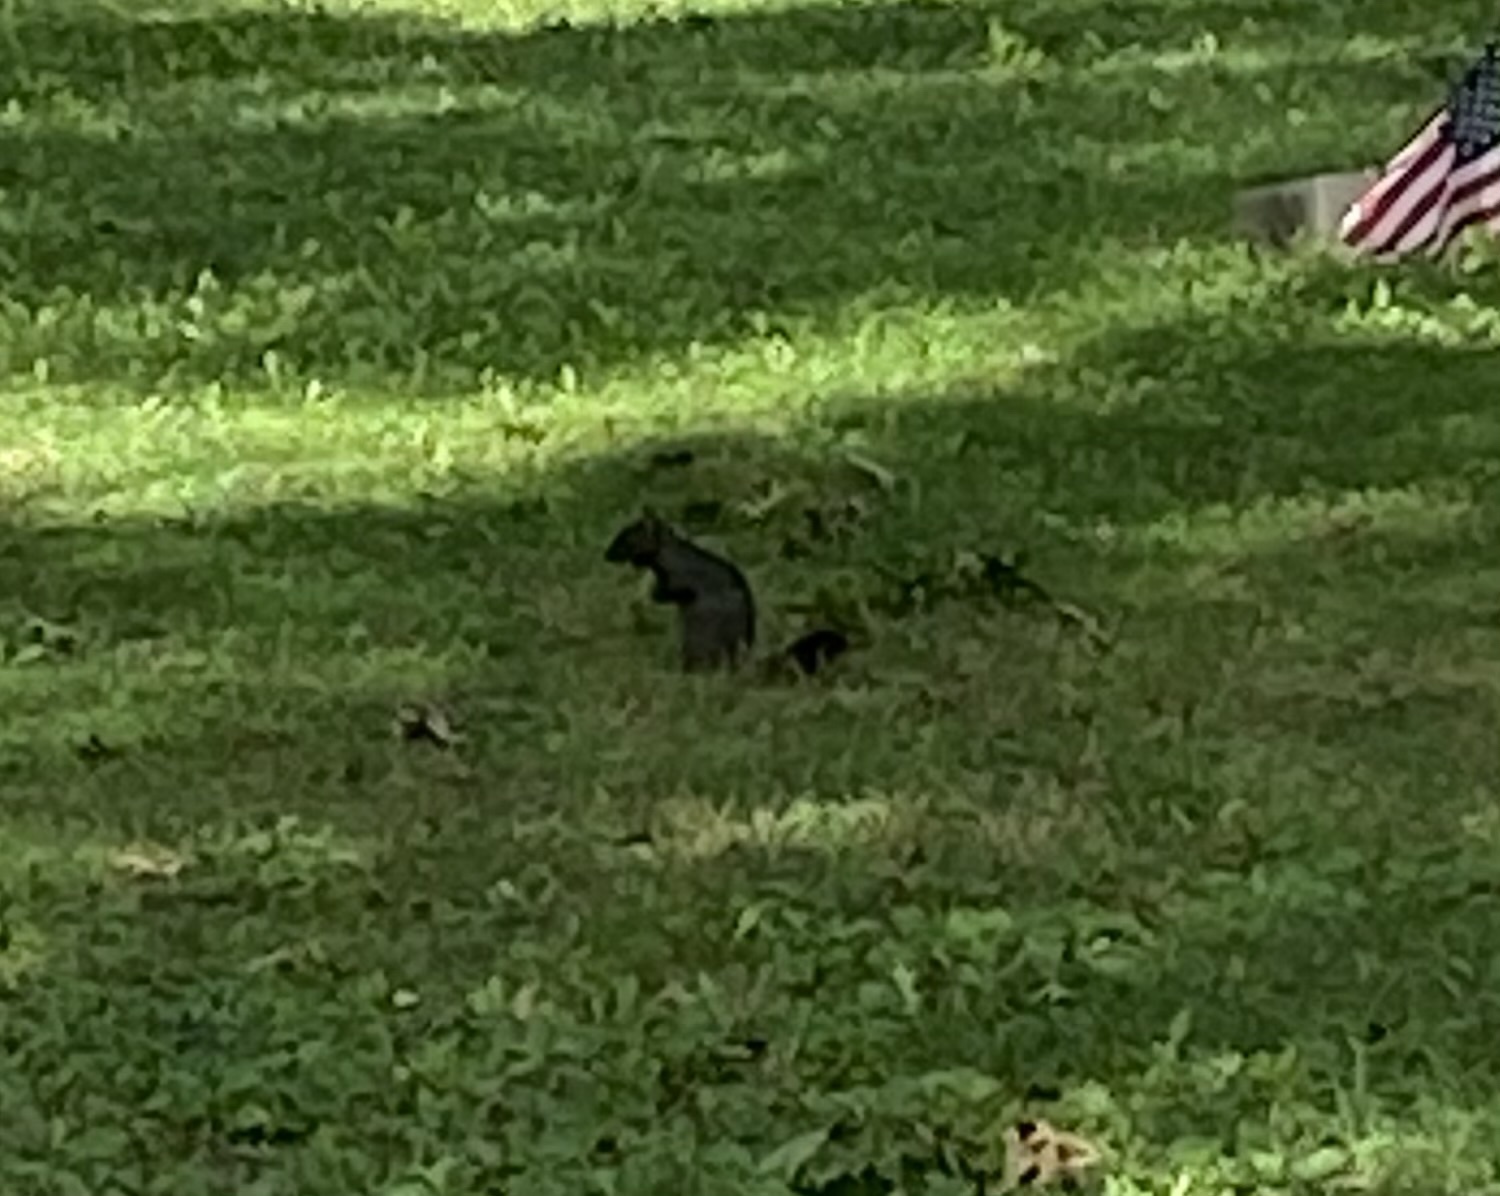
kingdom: Animalia
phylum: Chordata
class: Mammalia
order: Rodentia
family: Sciuridae
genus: Sciurus
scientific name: Sciurus carolinensis
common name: Eastern gray squirrel
